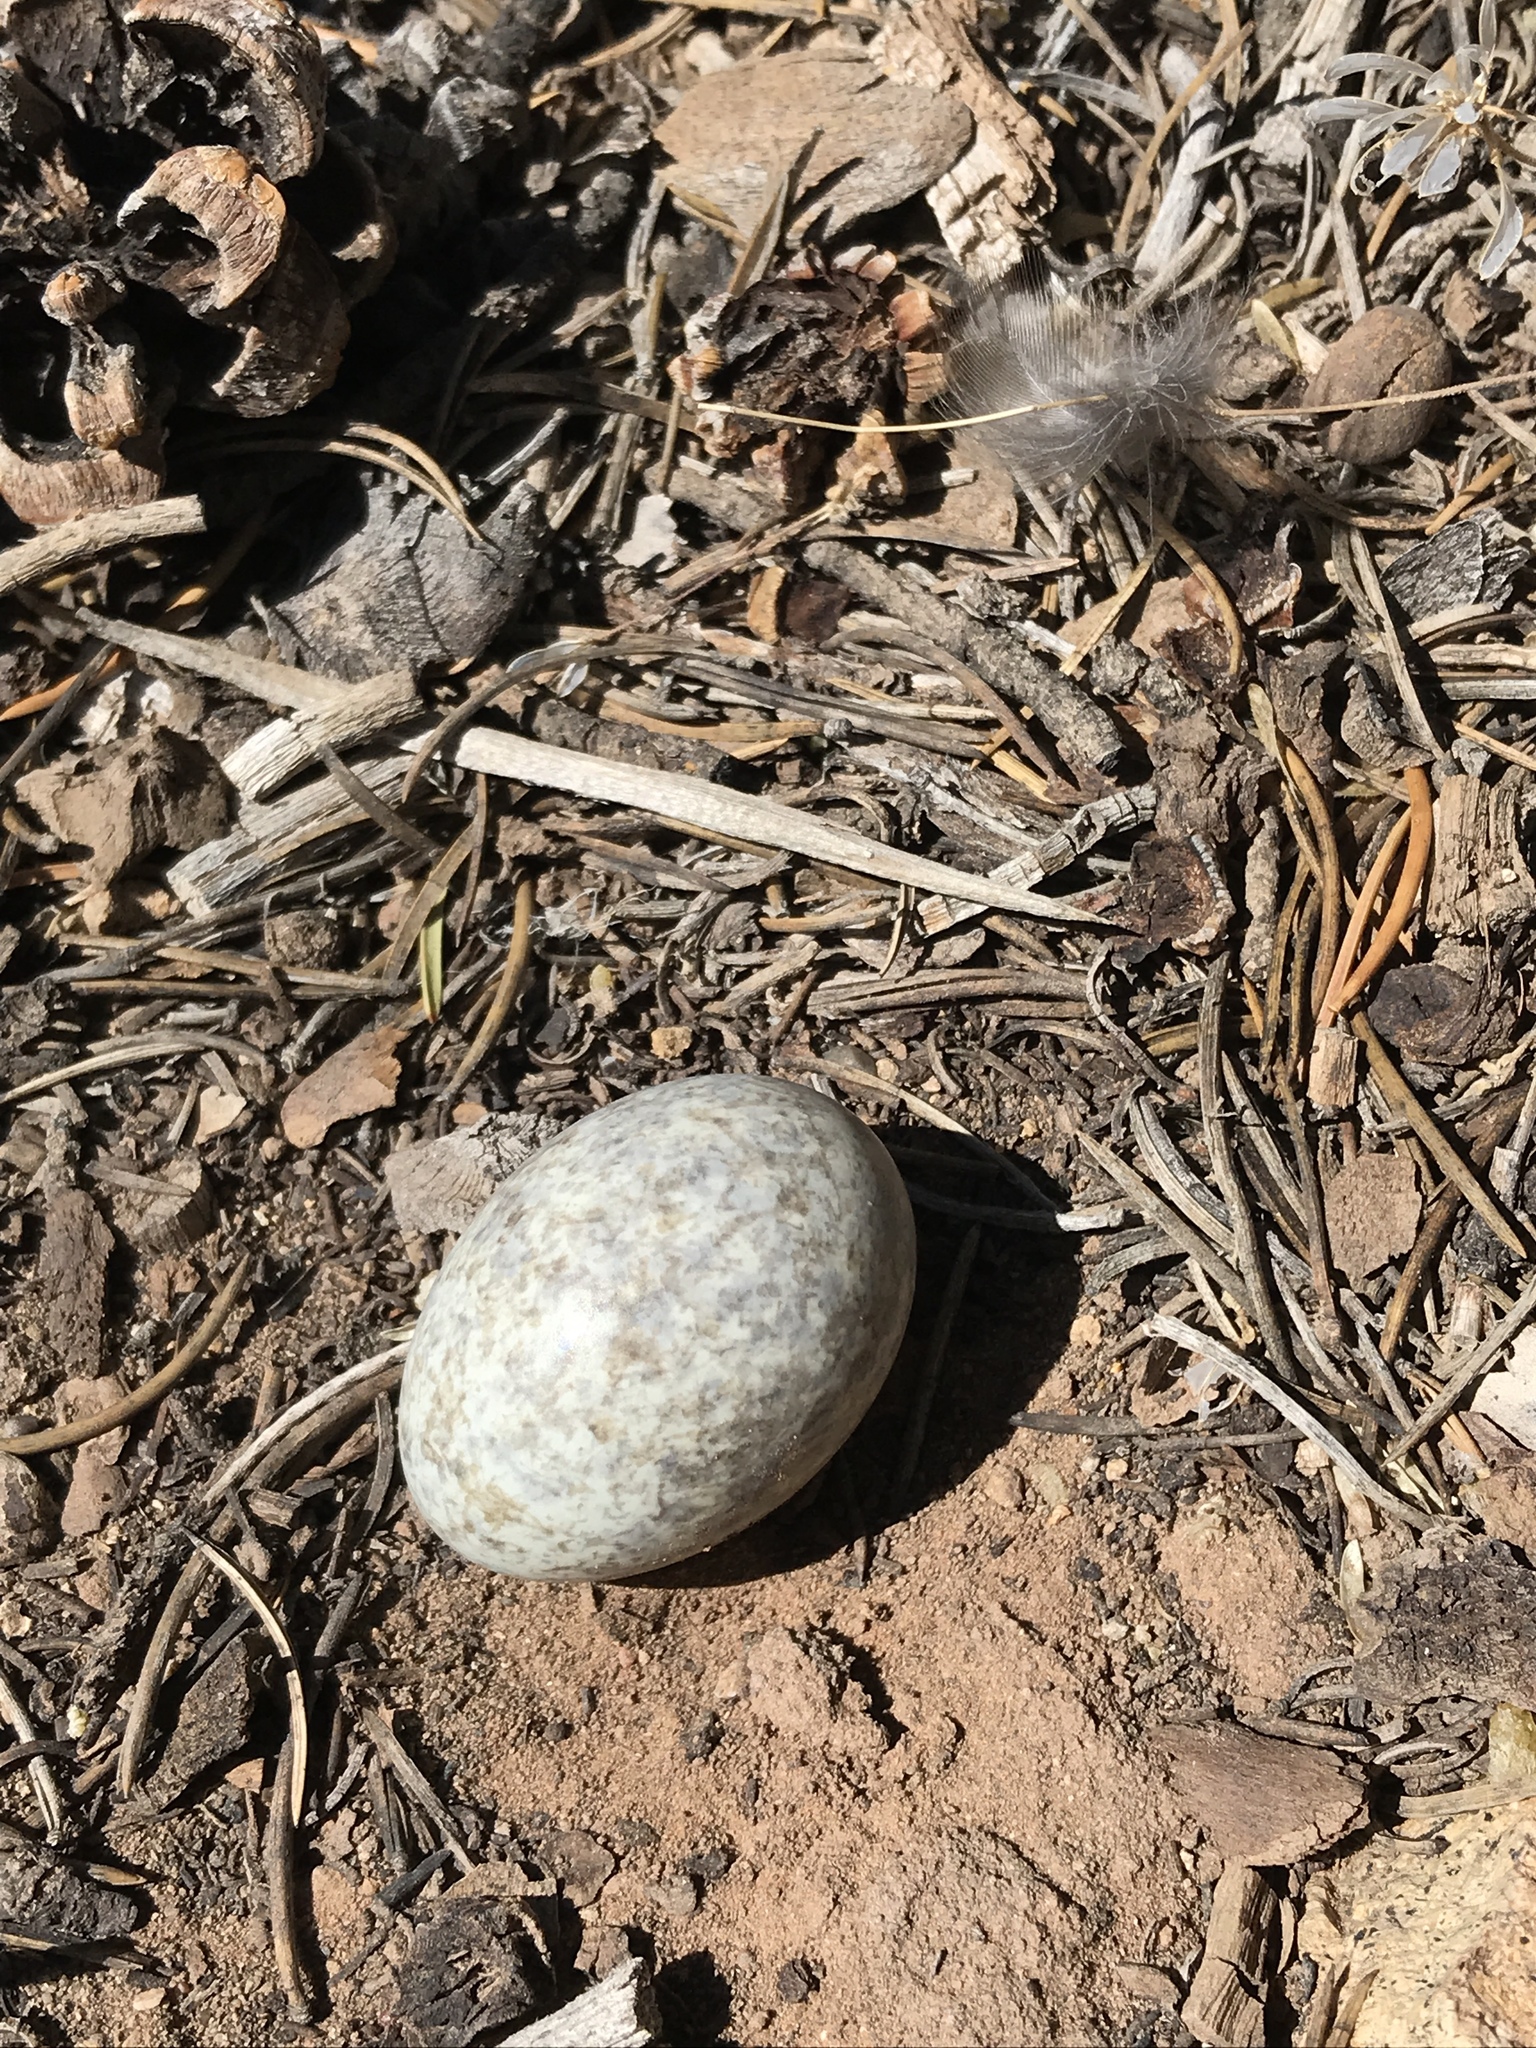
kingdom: Animalia
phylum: Chordata
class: Aves
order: Caprimulgiformes
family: Caprimulgidae
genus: Chordeiles
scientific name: Chordeiles minor
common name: Common nighthawk
